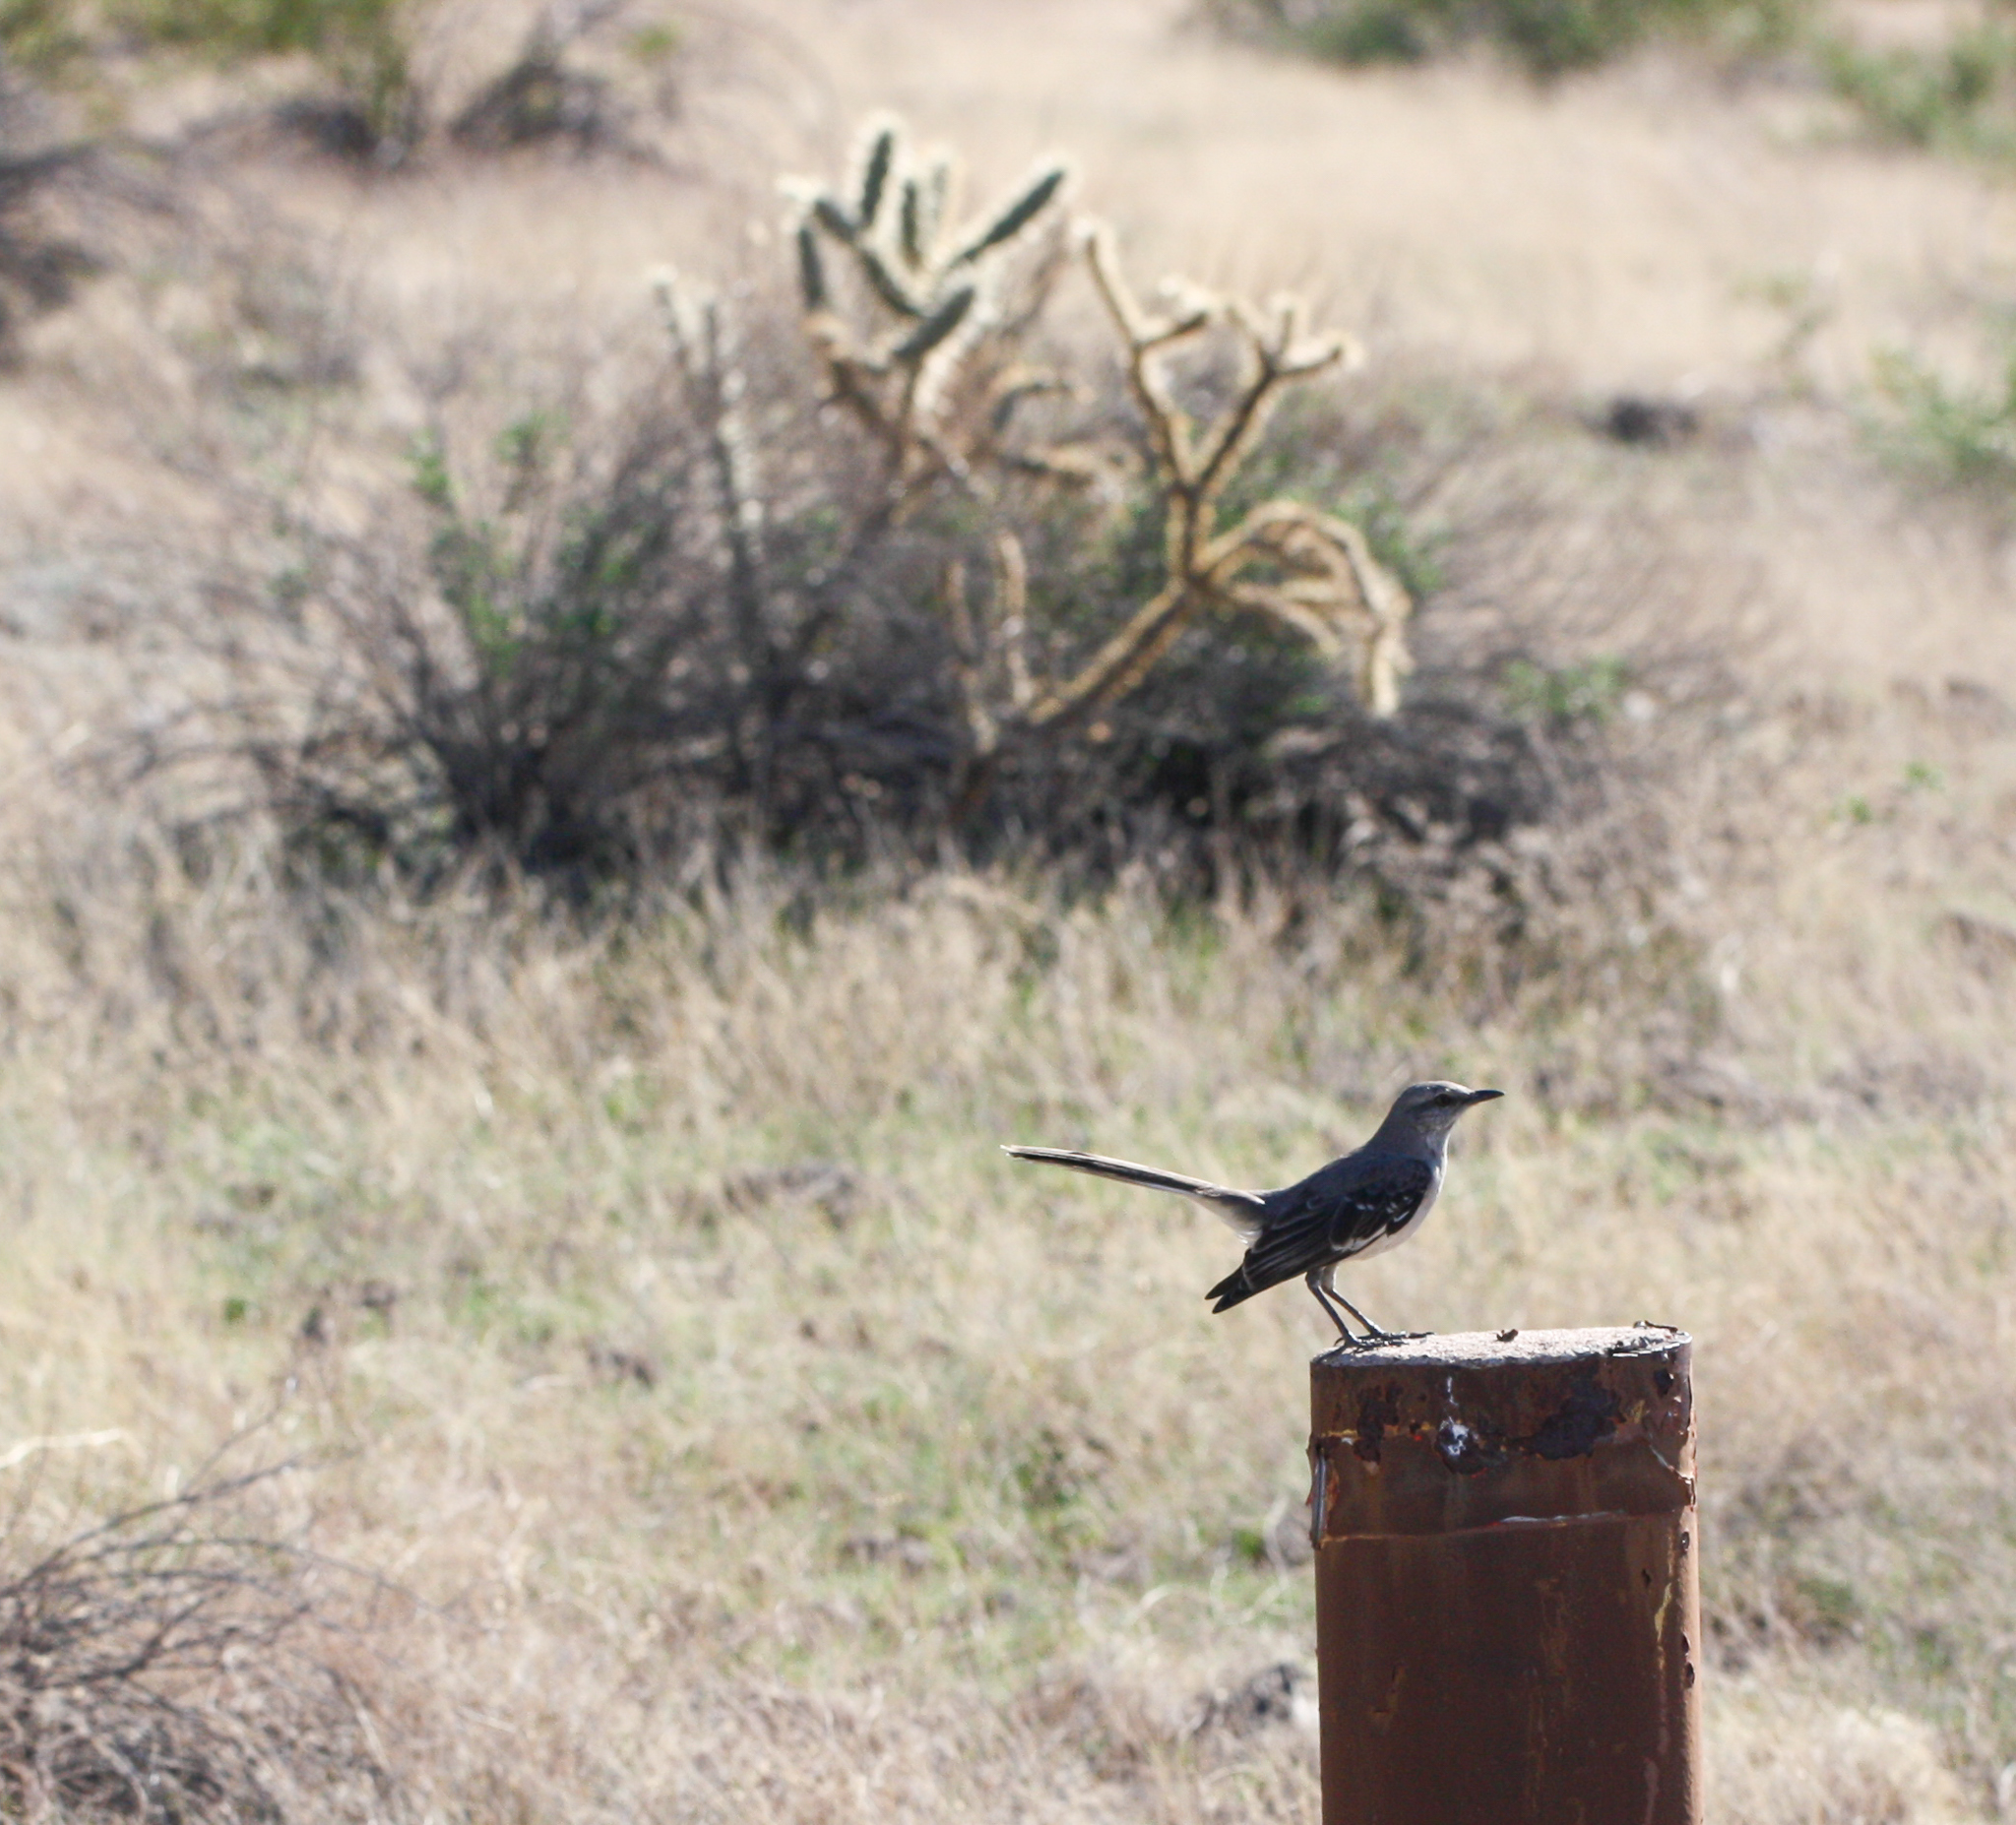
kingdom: Animalia
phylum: Chordata
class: Aves
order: Passeriformes
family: Mimidae
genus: Mimus
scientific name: Mimus polyglottos
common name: Northern mockingbird
